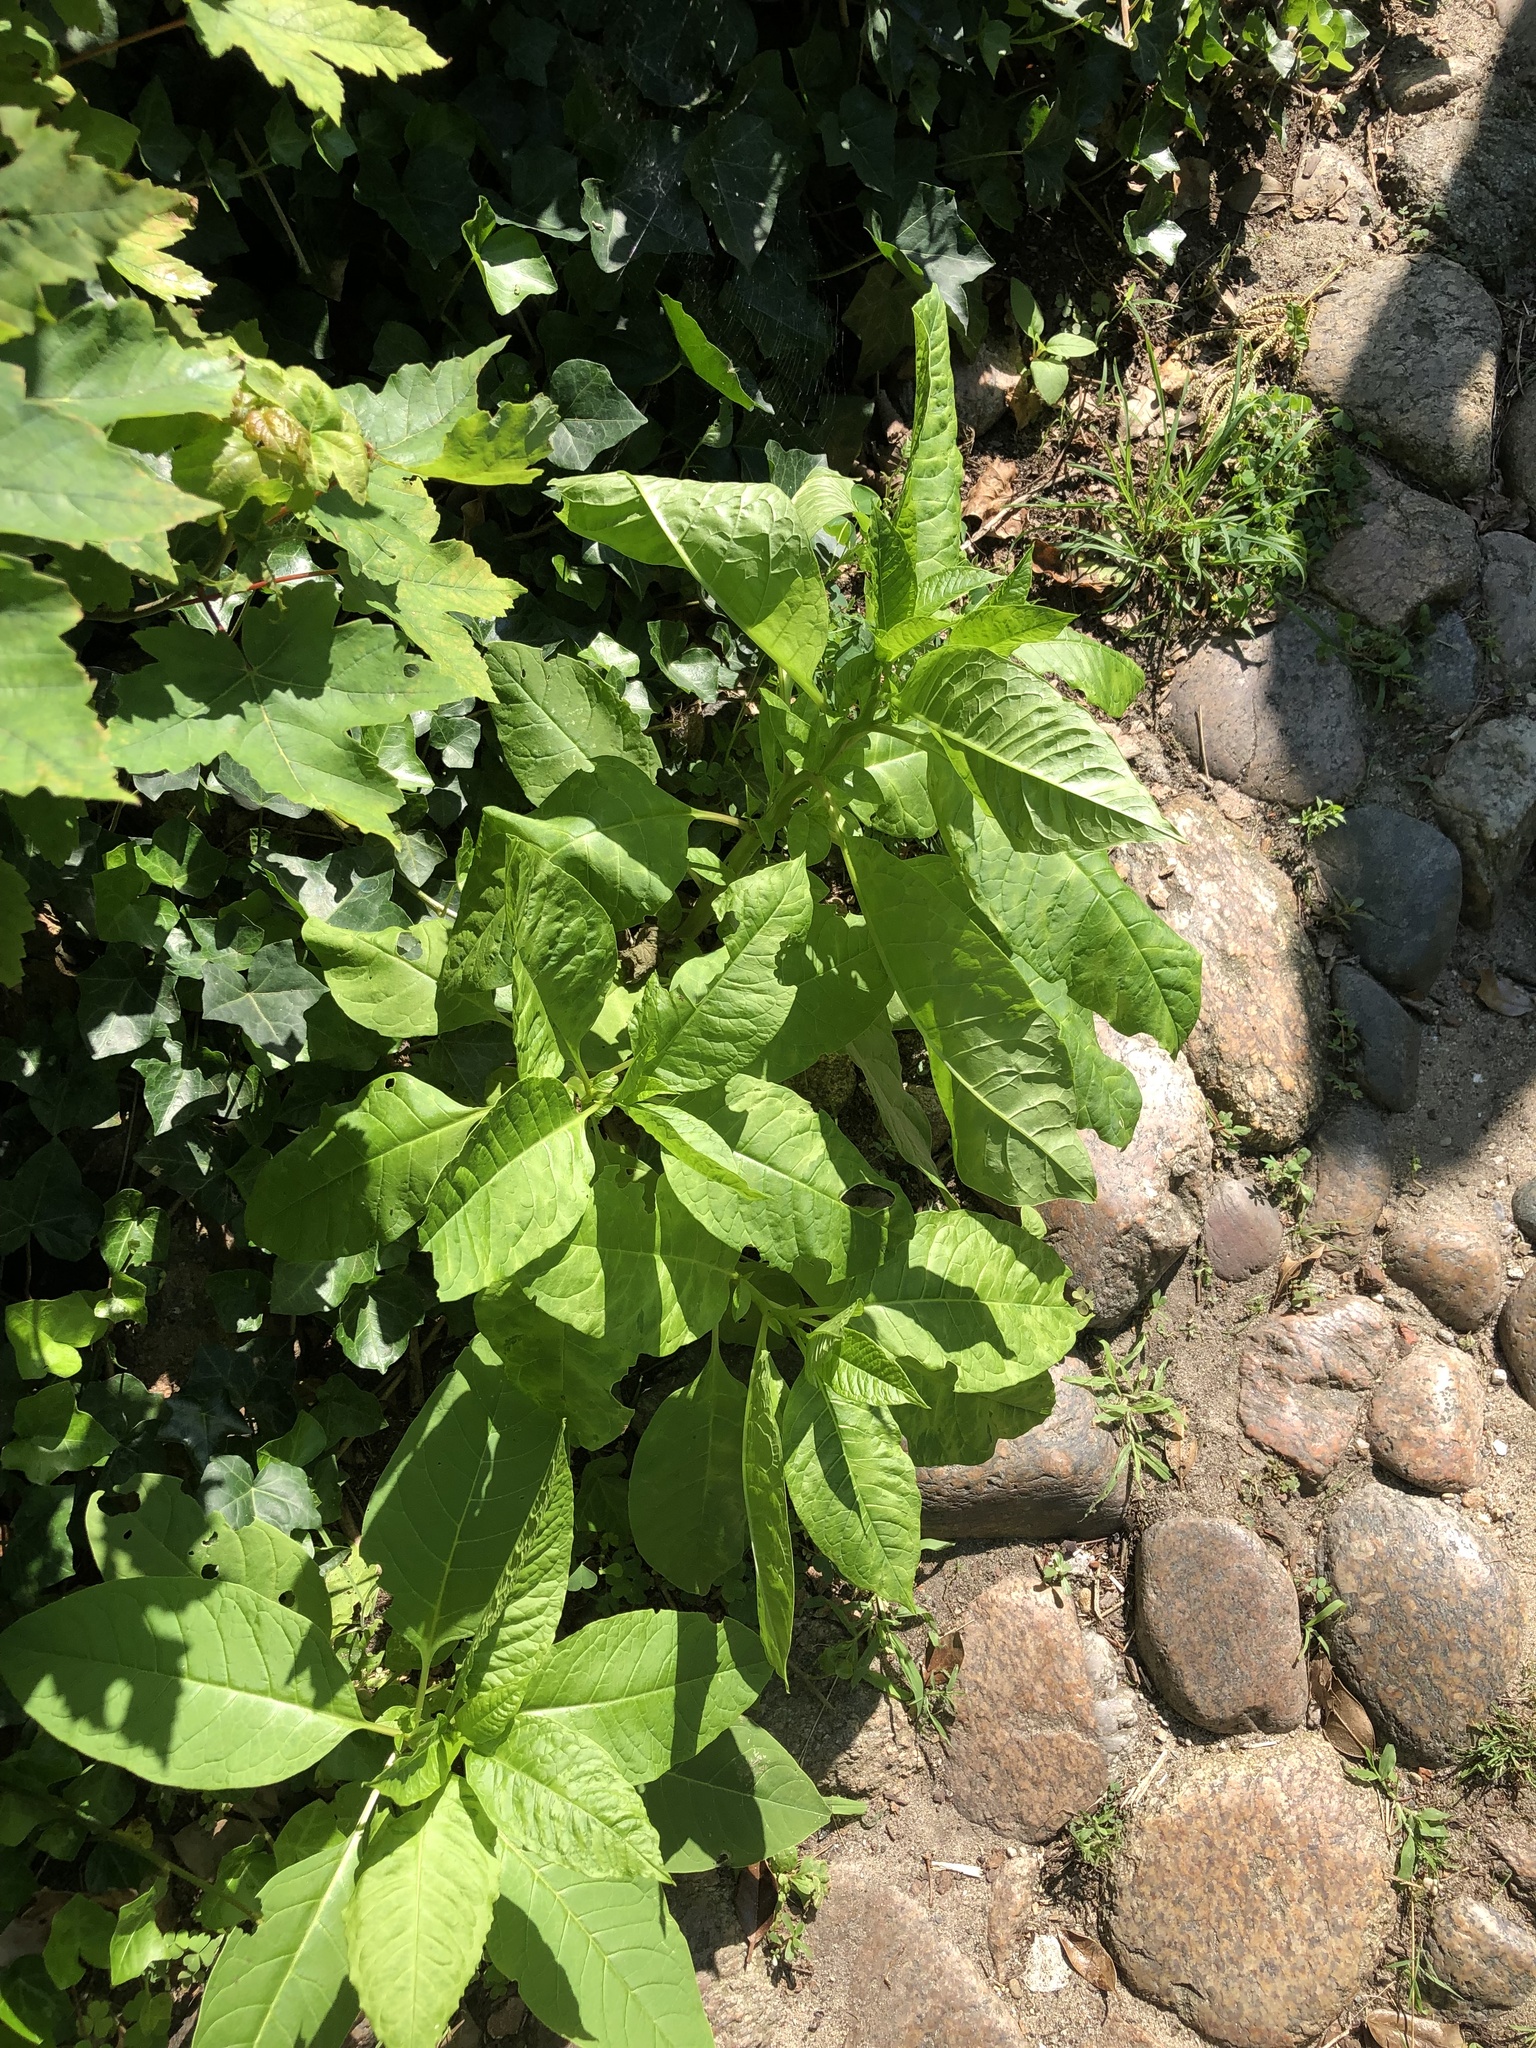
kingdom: Plantae
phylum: Tracheophyta
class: Magnoliopsida
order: Caryophyllales
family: Phytolaccaceae
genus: Phytolacca
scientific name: Phytolacca americana
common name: American pokeweed
